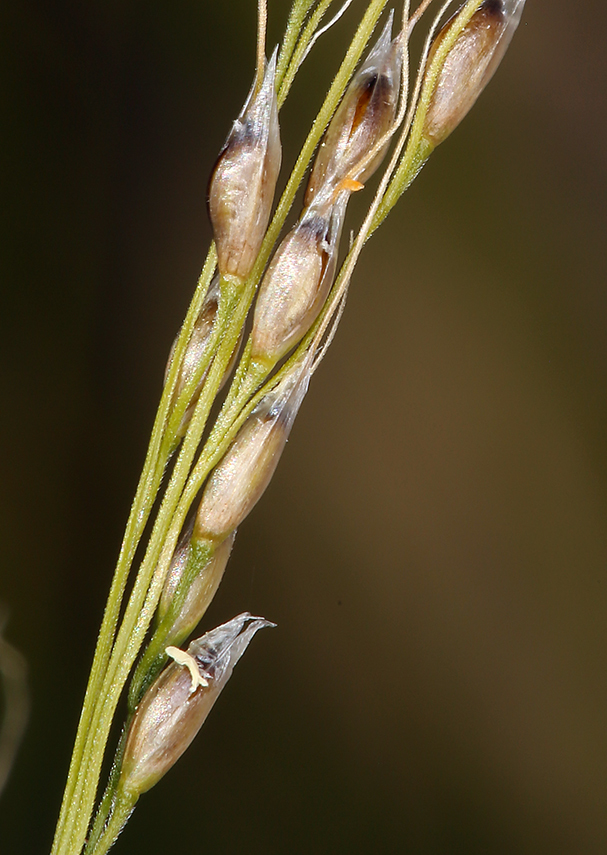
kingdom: Plantae
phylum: Tracheophyta
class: Liliopsida
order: Poales
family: Poaceae
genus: Piptatheropsis
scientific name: Piptatheropsis micrantha
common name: Little-seed mountain ricegrass
